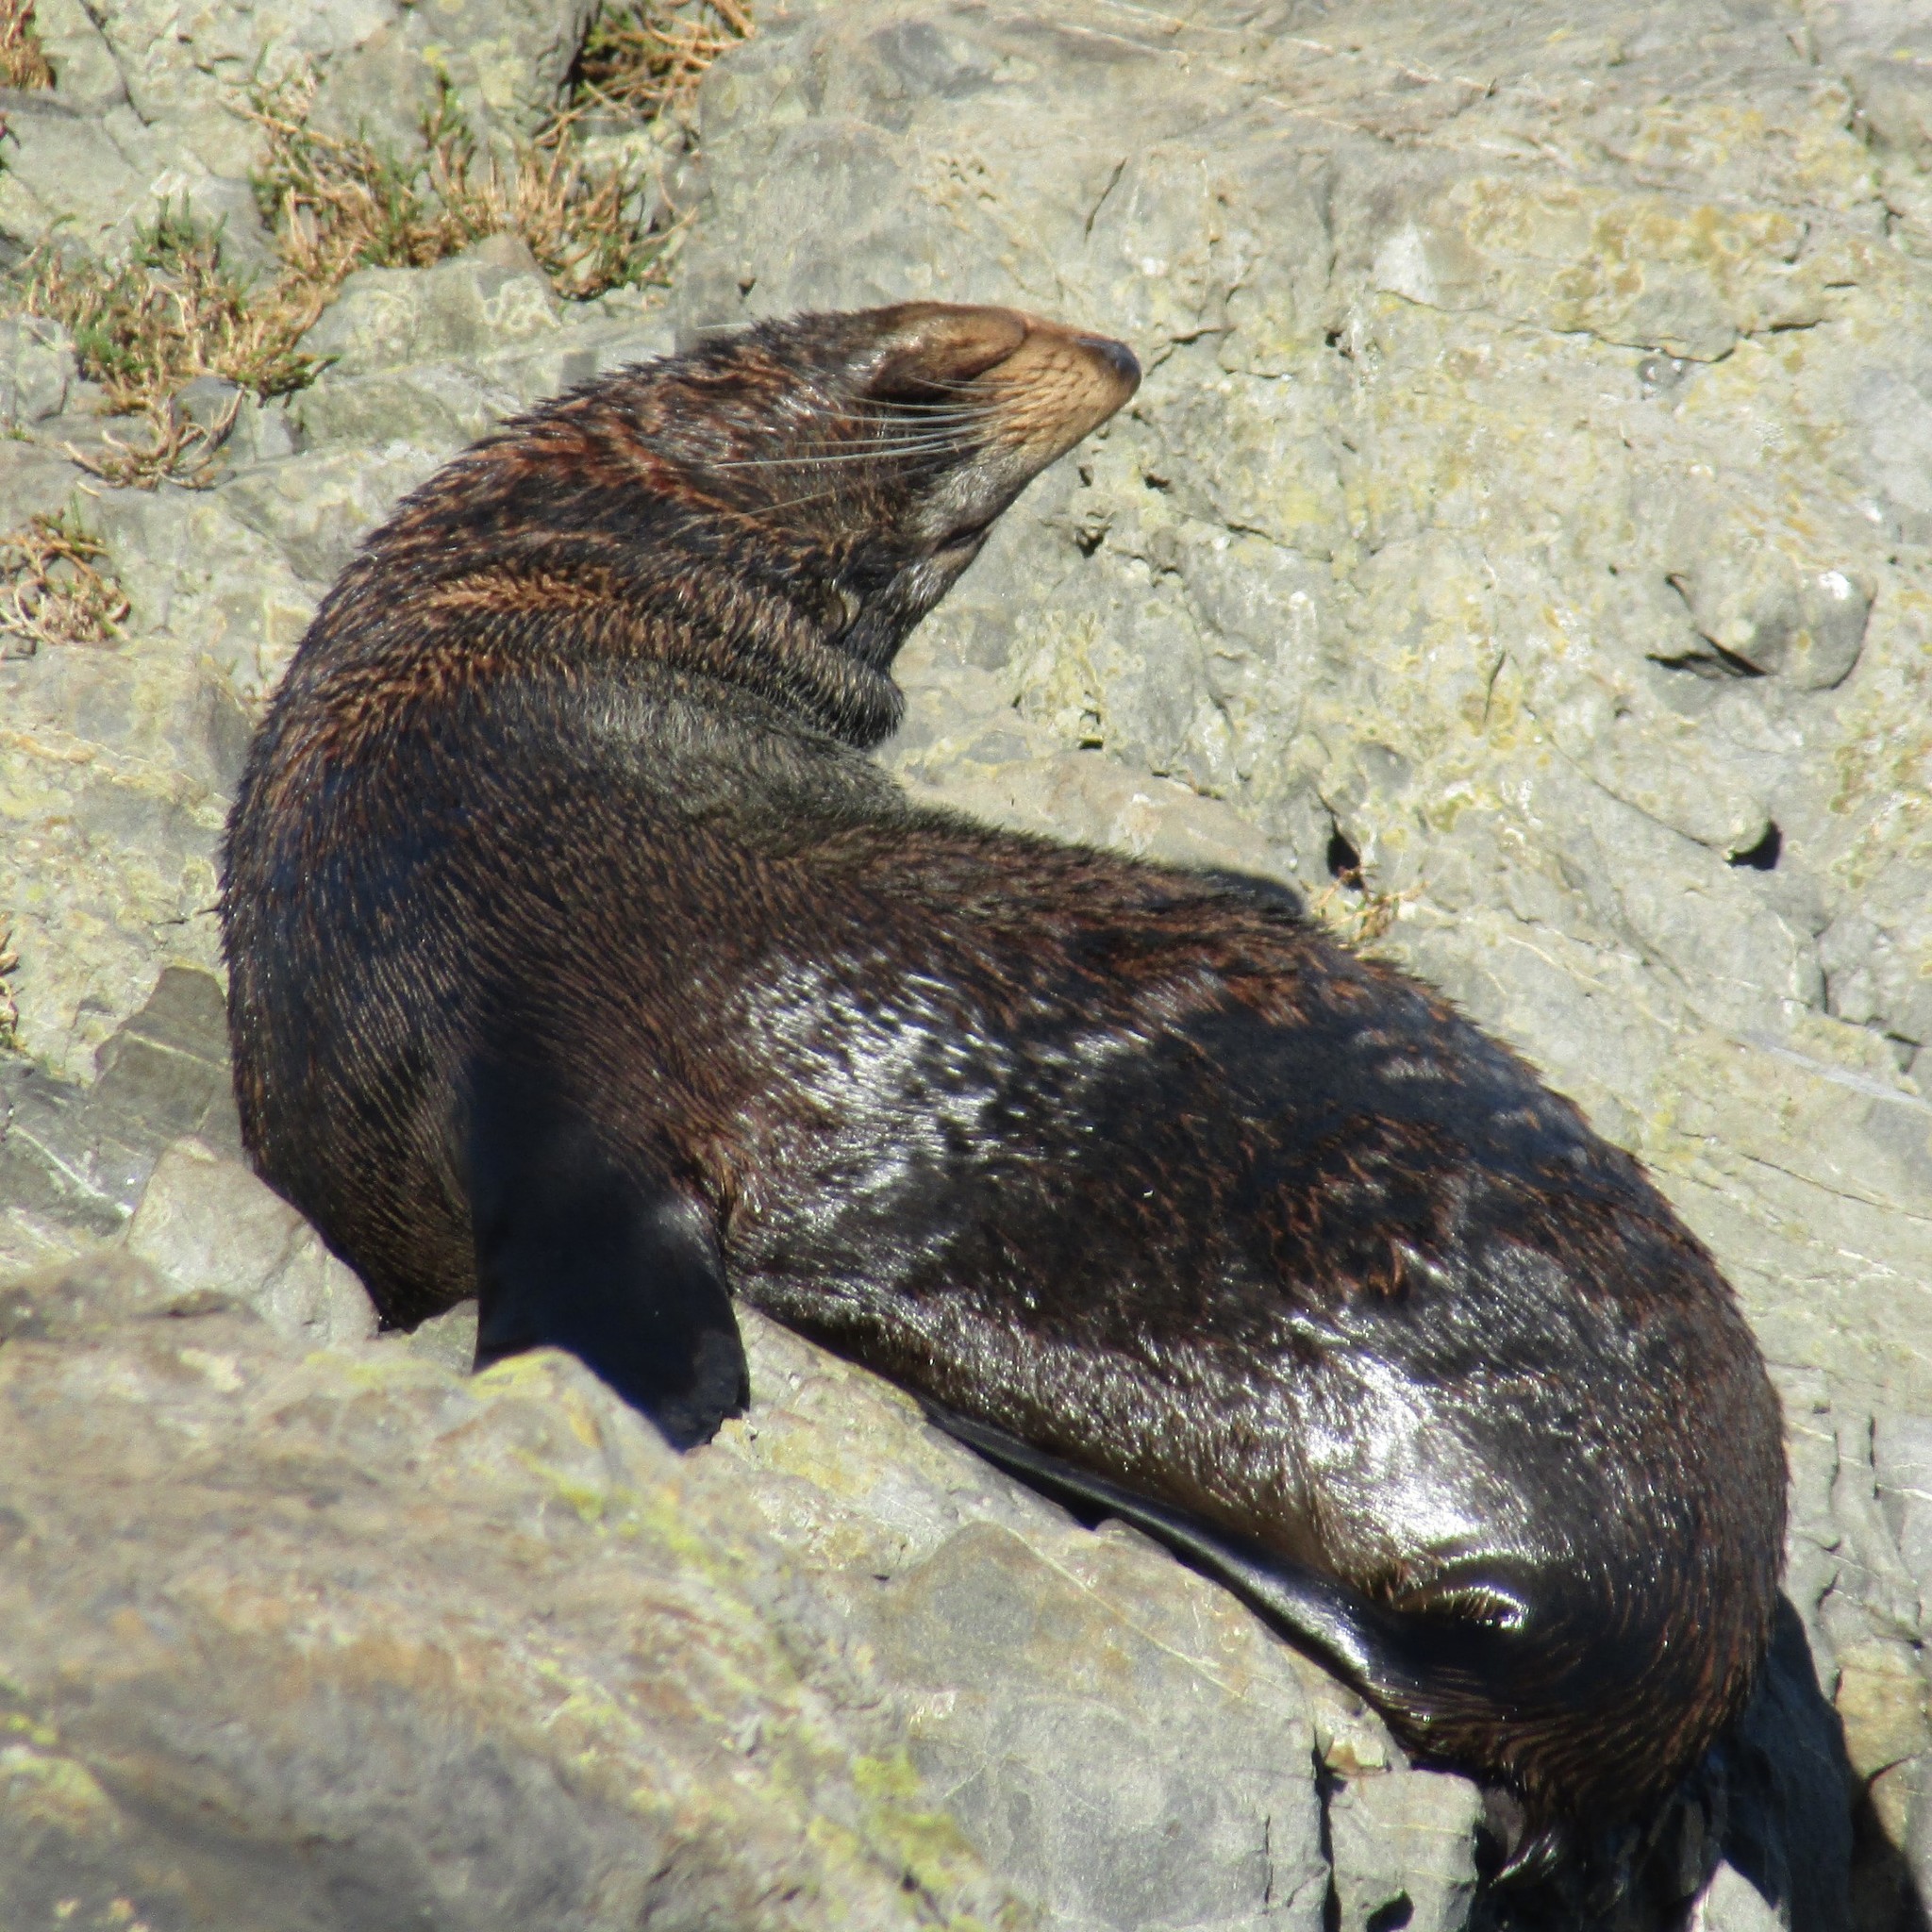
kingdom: Animalia
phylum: Chordata
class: Mammalia
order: Carnivora
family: Otariidae
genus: Arctocephalus
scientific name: Arctocephalus forsteri
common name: New zealand fur seal
